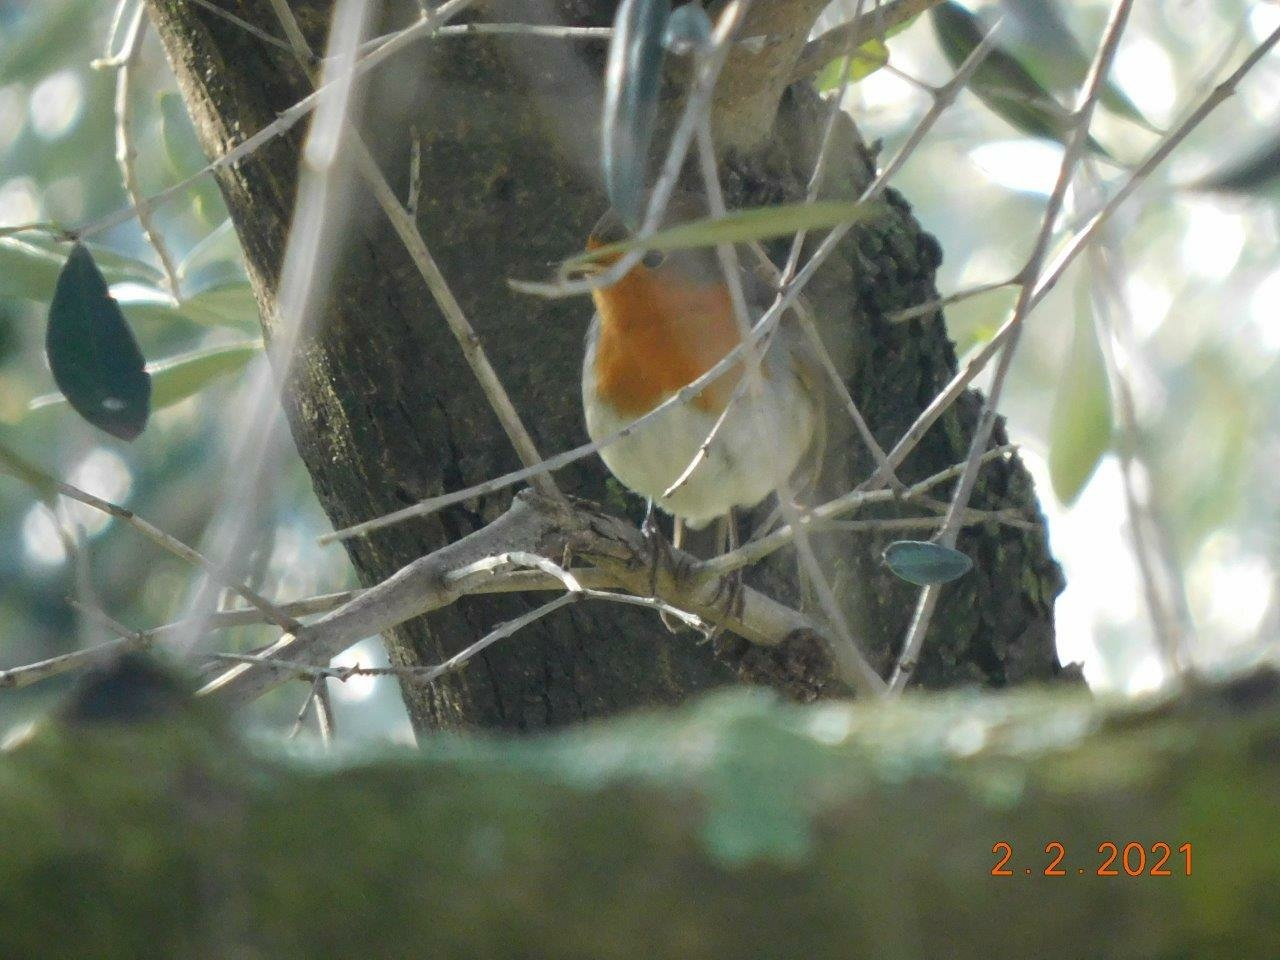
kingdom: Animalia
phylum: Chordata
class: Aves
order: Passeriformes
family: Muscicapidae
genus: Erithacus
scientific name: Erithacus rubecula
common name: European robin
